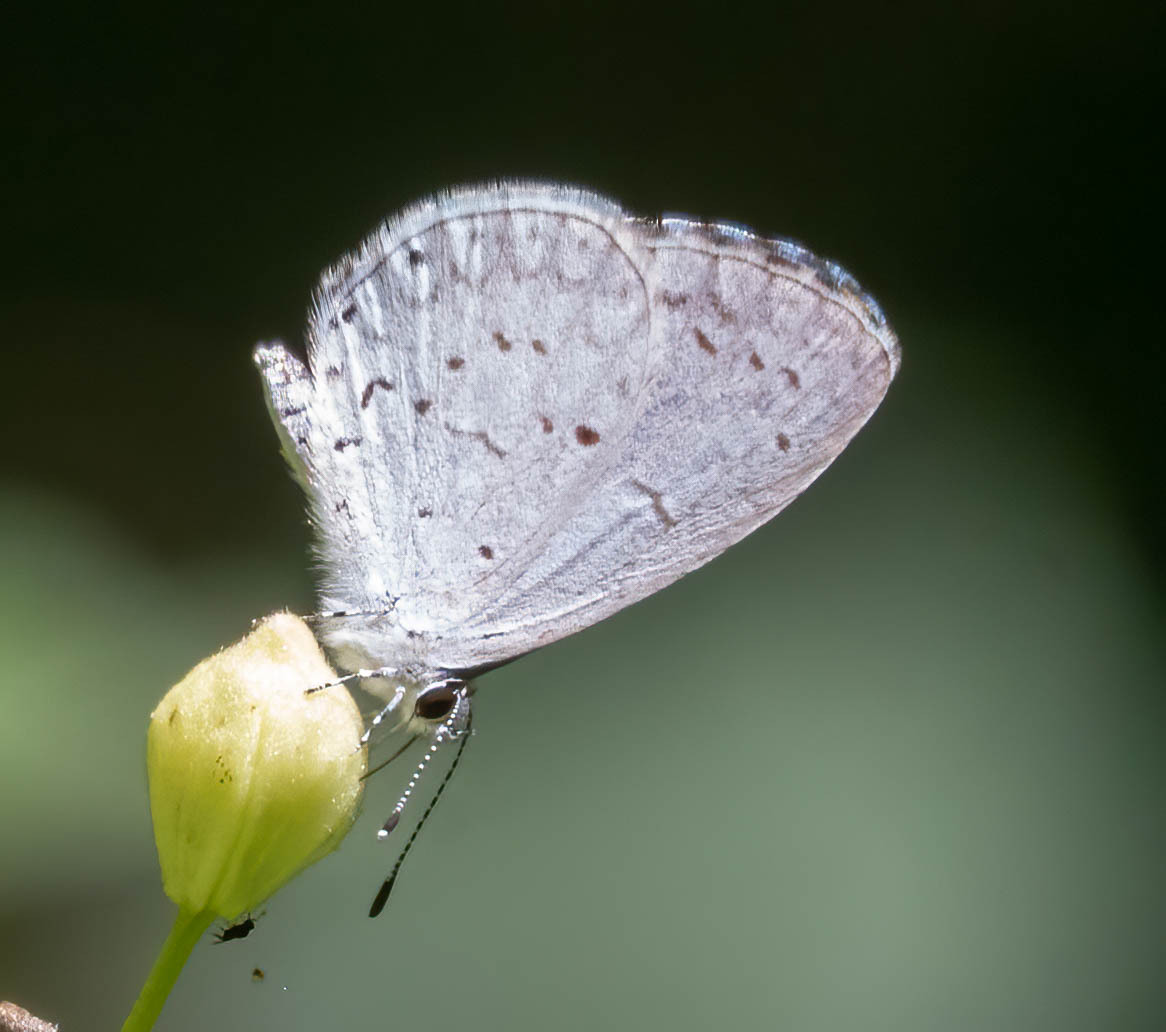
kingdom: Animalia
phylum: Arthropoda
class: Insecta
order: Lepidoptera
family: Lycaenidae
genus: Cyaniris
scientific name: Cyaniris neglecta
